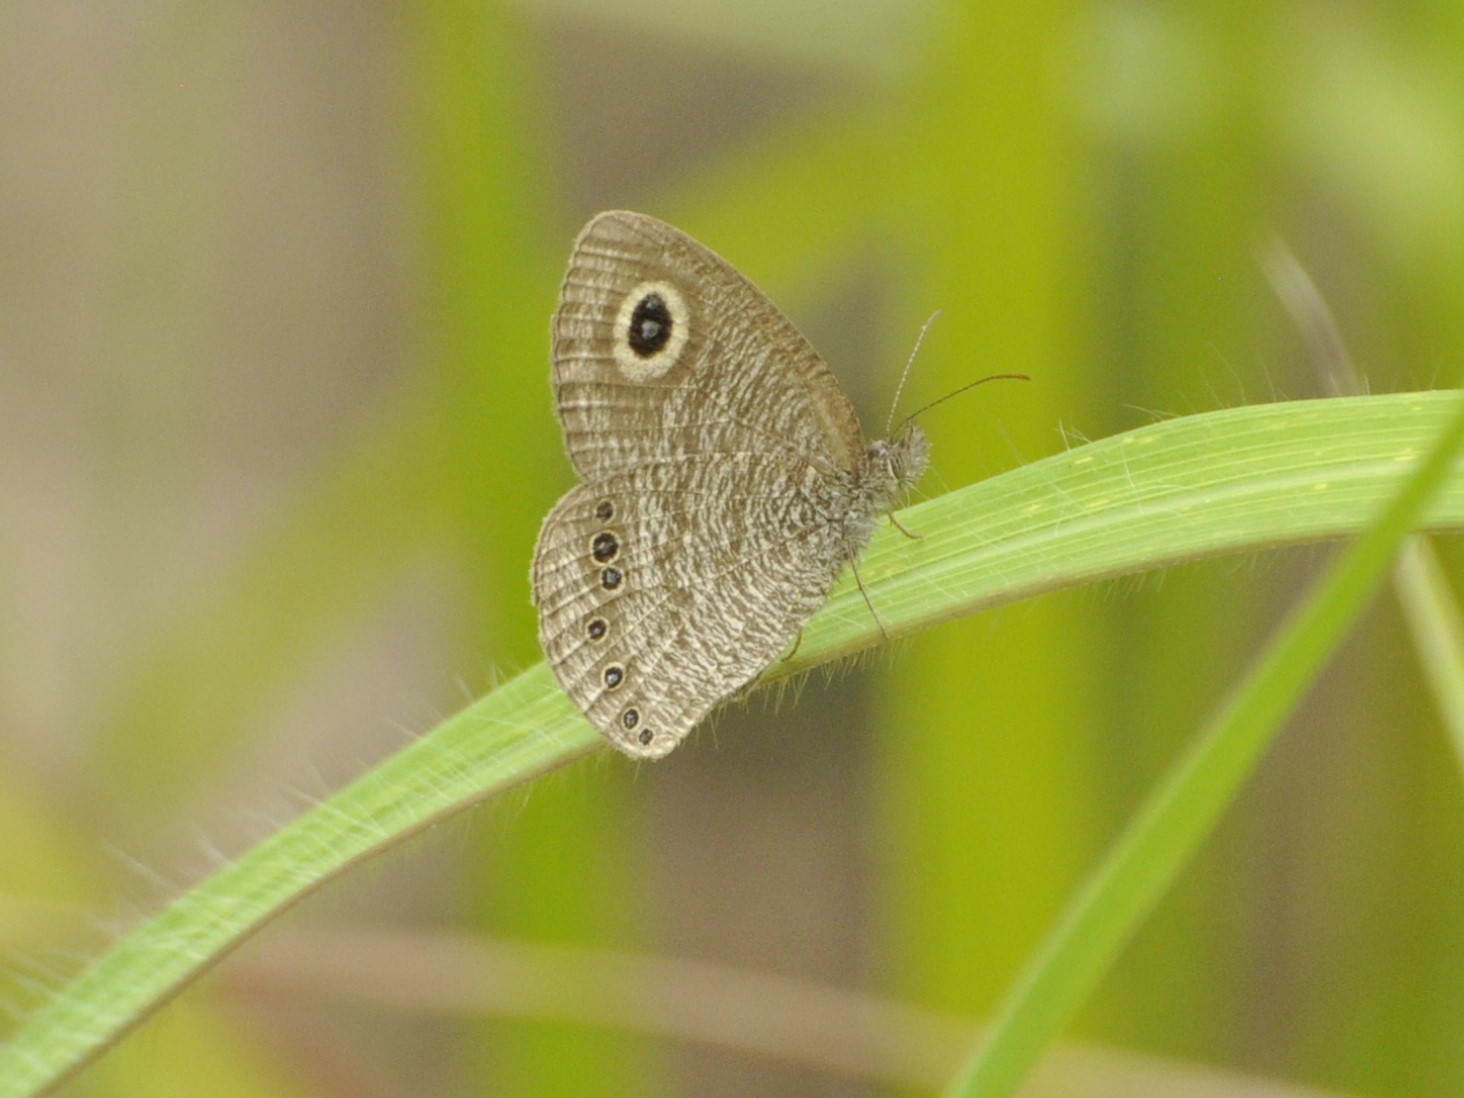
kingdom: Animalia
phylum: Arthropoda
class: Insecta
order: Lepidoptera
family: Nymphalidae
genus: Ypthimomorpha
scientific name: Ypthimomorpha itonia
